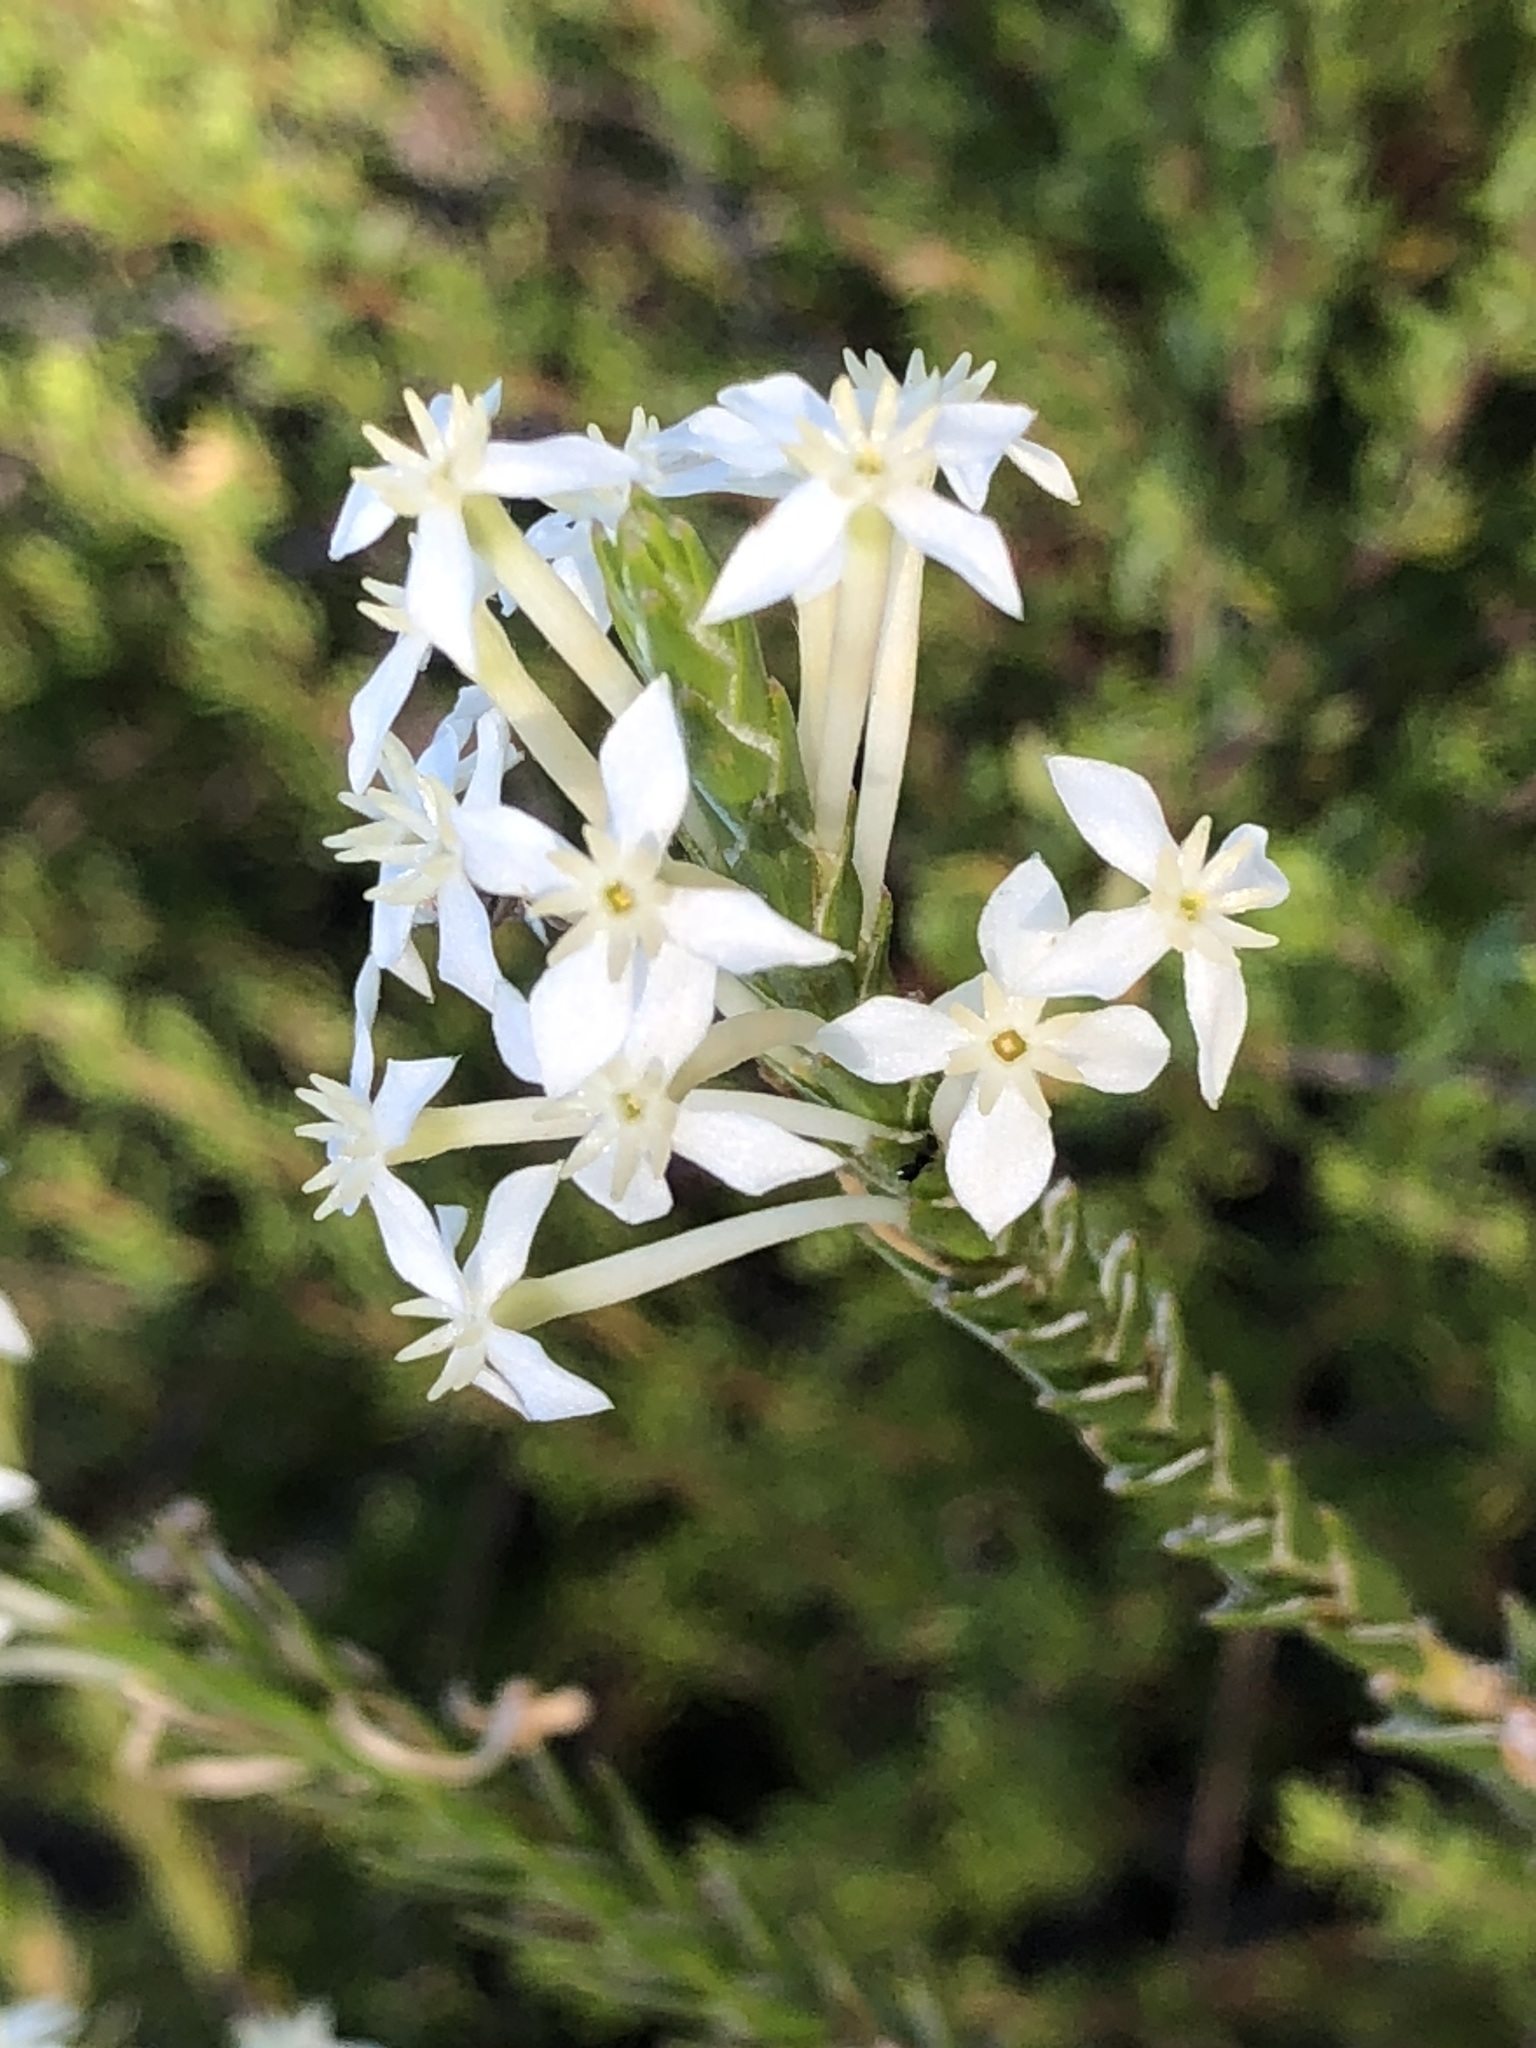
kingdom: Plantae
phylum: Tracheophyta
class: Magnoliopsida
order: Malvales
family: Thymelaeaceae
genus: Struthiola
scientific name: Struthiola ciliata
